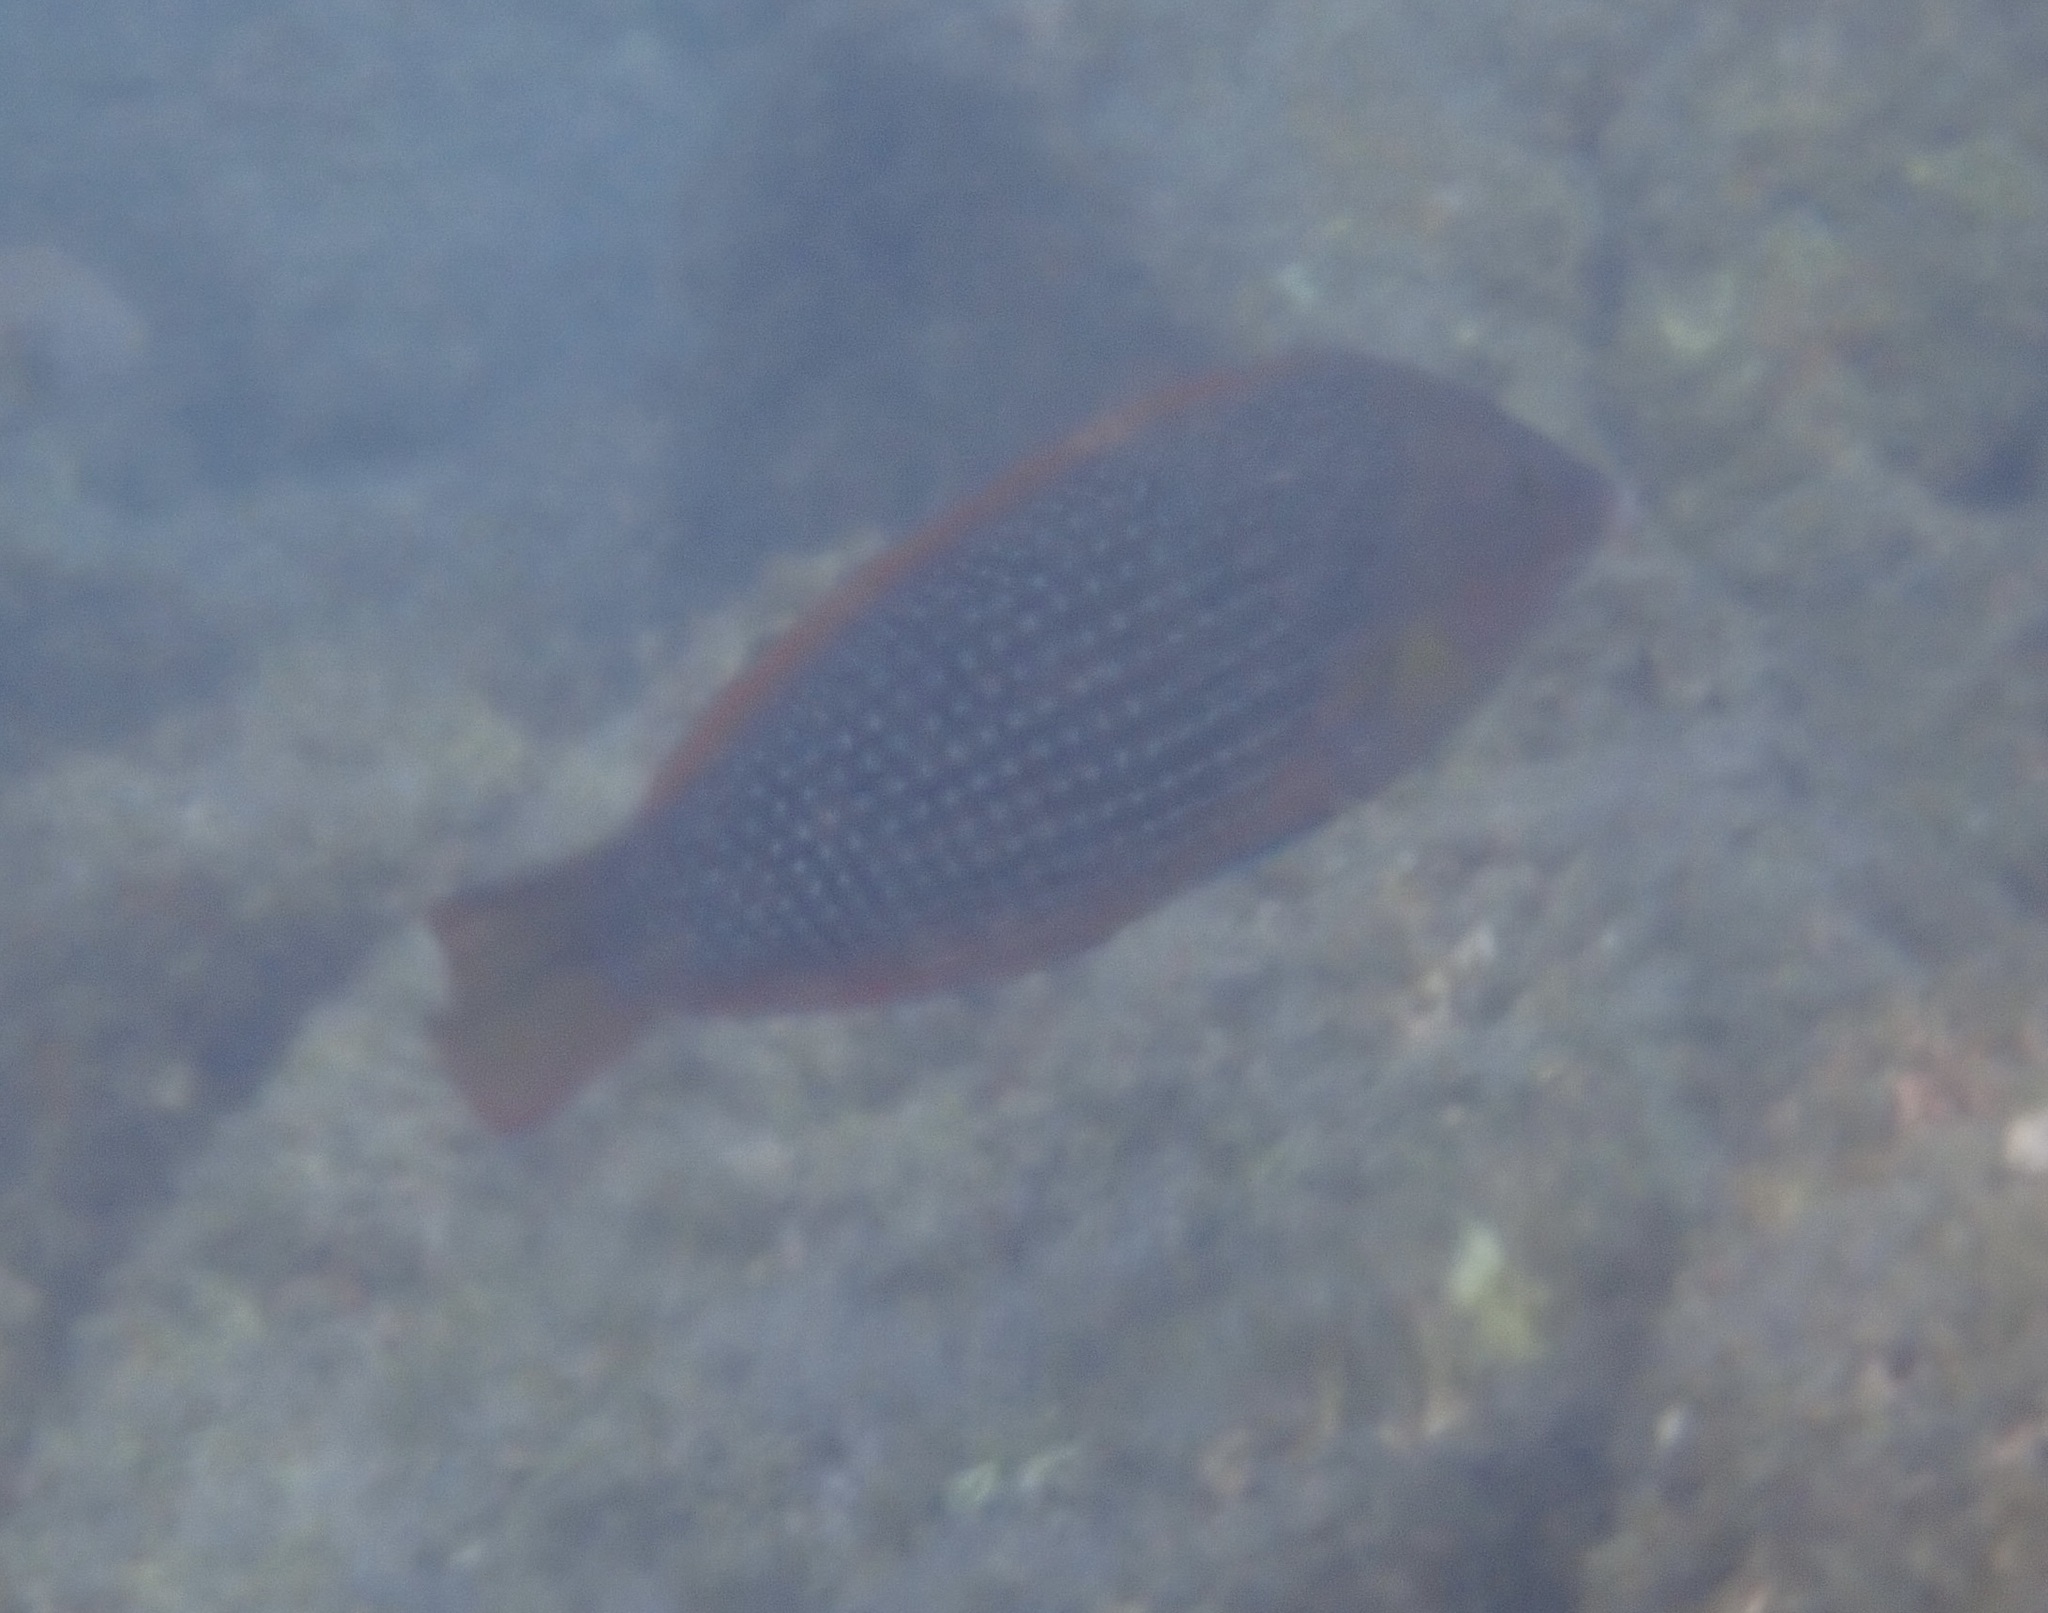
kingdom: Animalia
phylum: Chordata
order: Perciformes
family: Labridae
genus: Anampses
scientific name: Anampses cuvier
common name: Pearl wrasse
